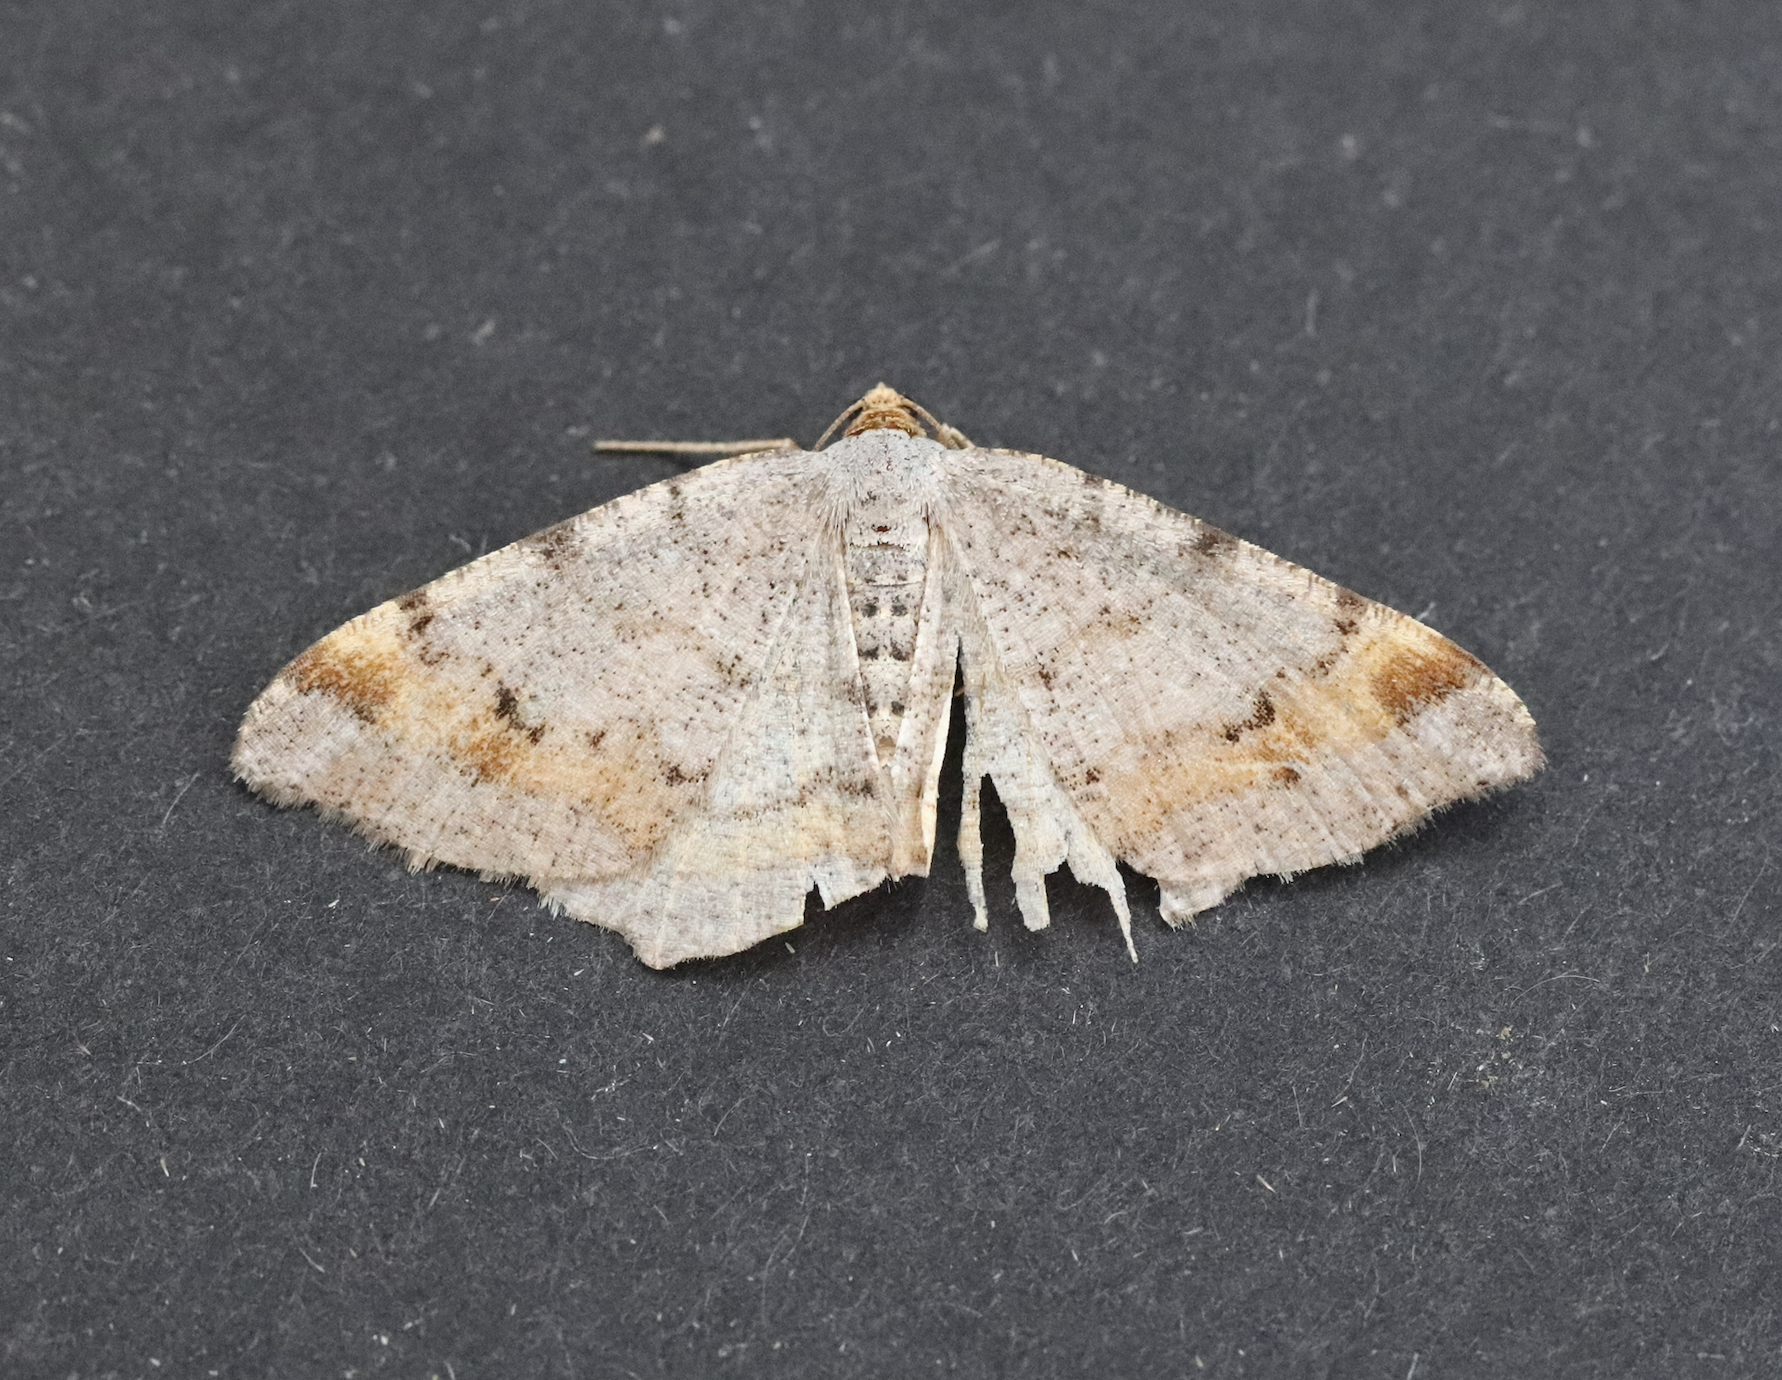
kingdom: Animalia
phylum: Arthropoda
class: Insecta
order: Lepidoptera
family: Geometridae
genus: Macaria
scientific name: Macaria liturata
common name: Tawny-barred angle
